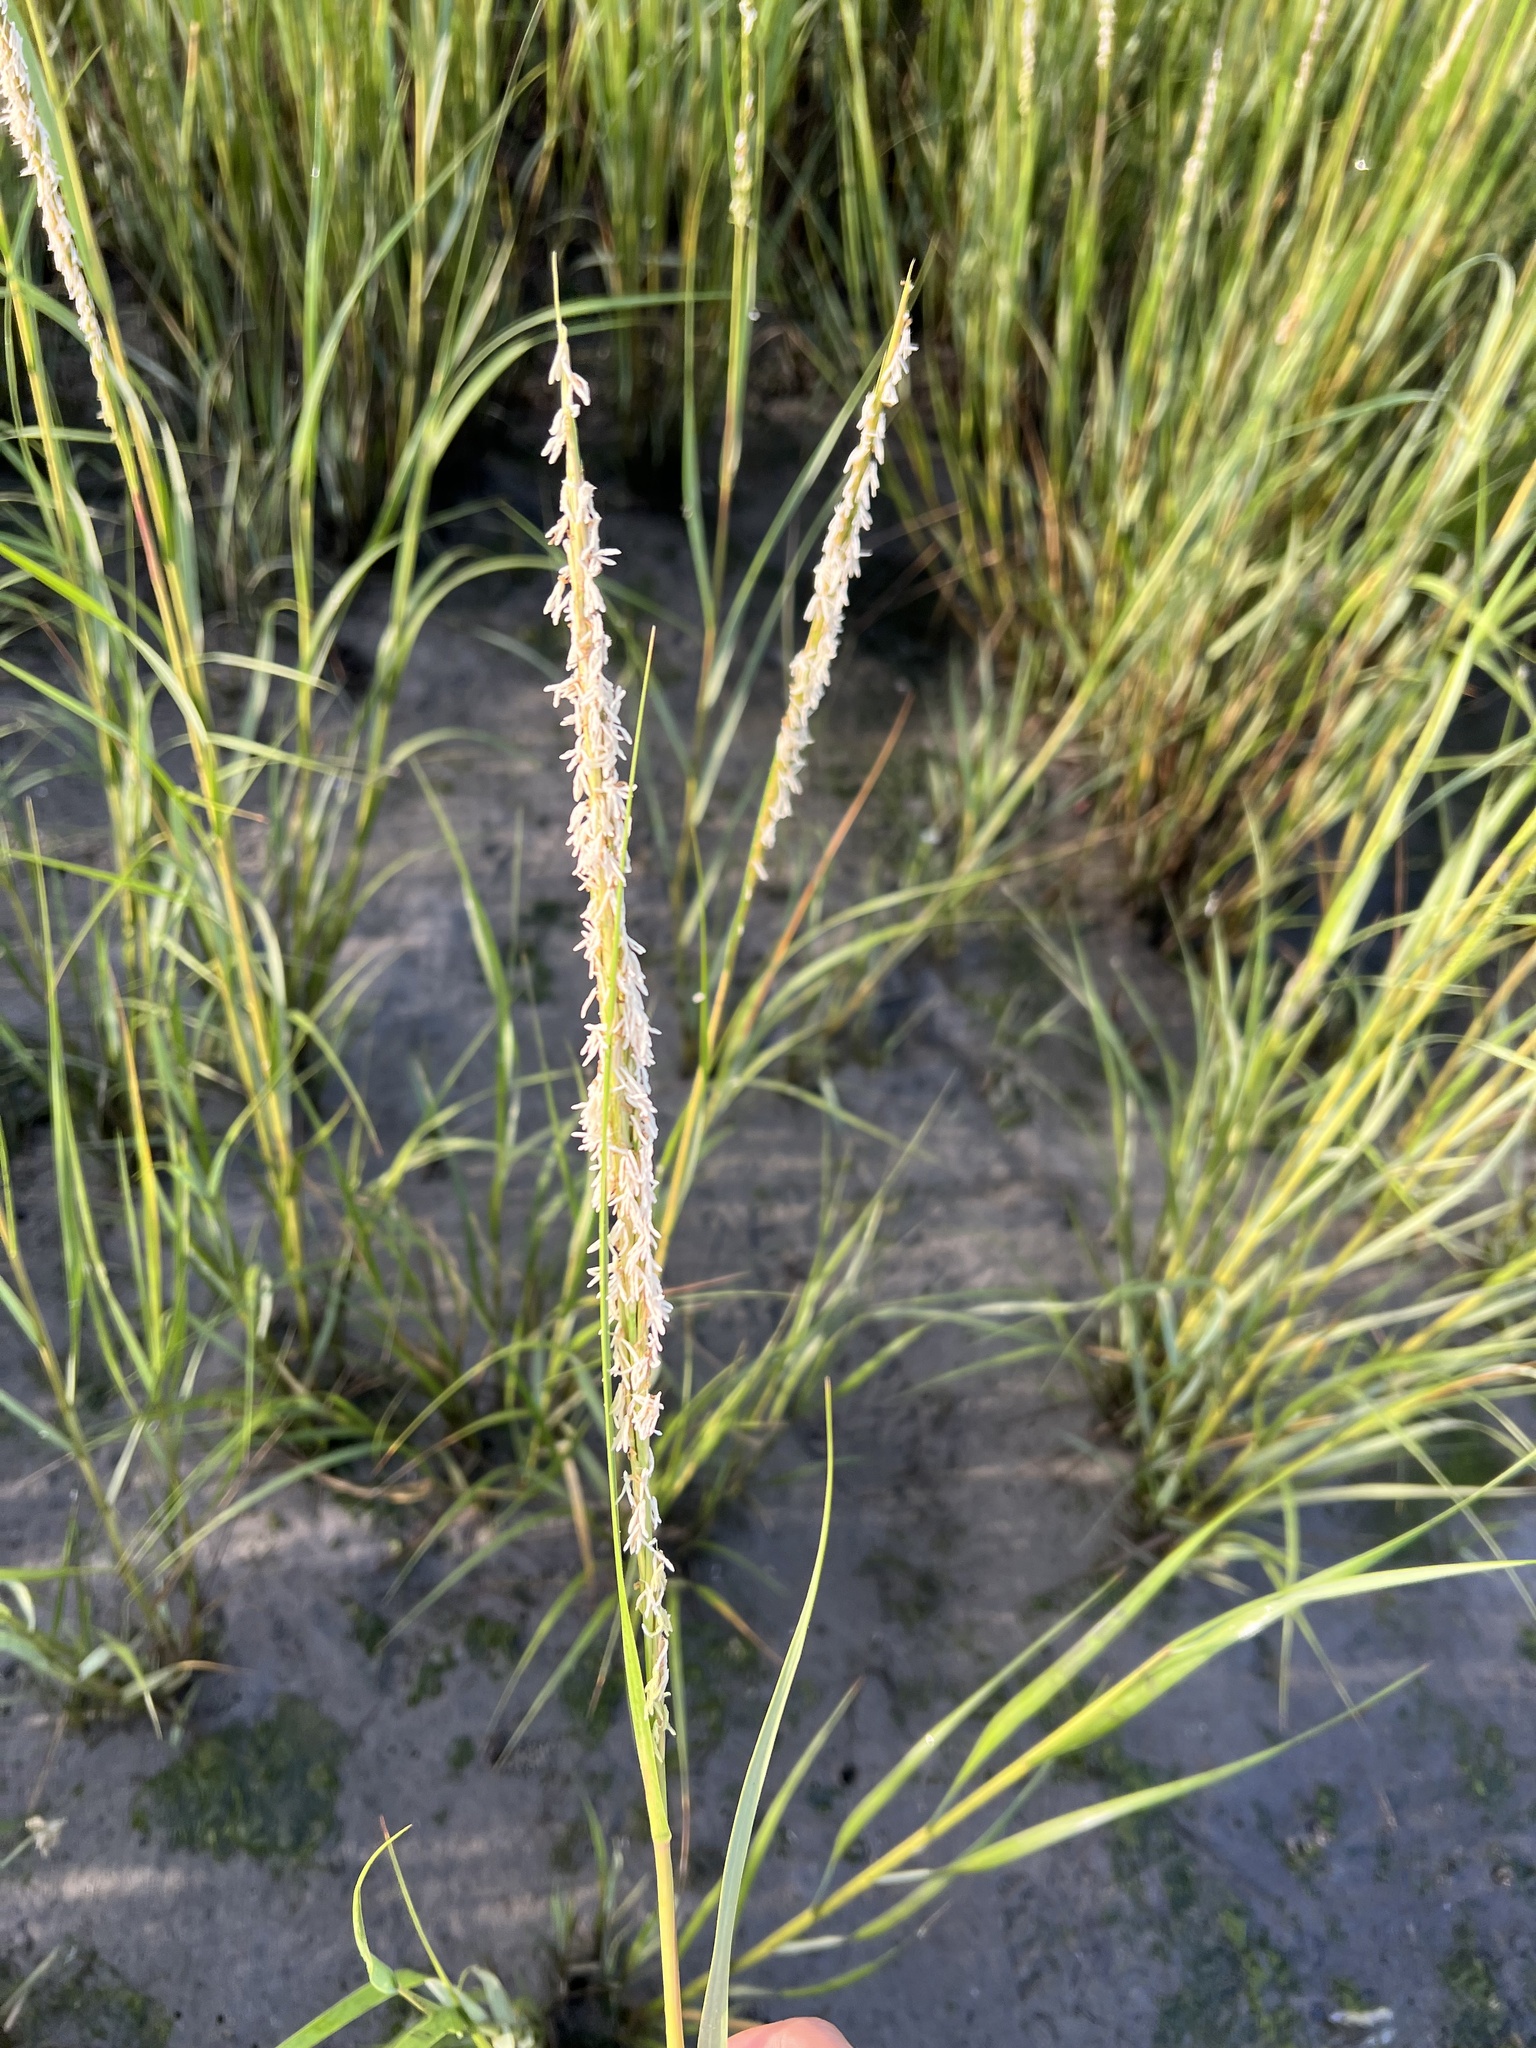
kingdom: Plantae
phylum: Tracheophyta
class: Liliopsida
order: Poales
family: Poaceae
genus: Sporobolus
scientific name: Sporobolus alterniflorus
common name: Atlantic cordgrass
